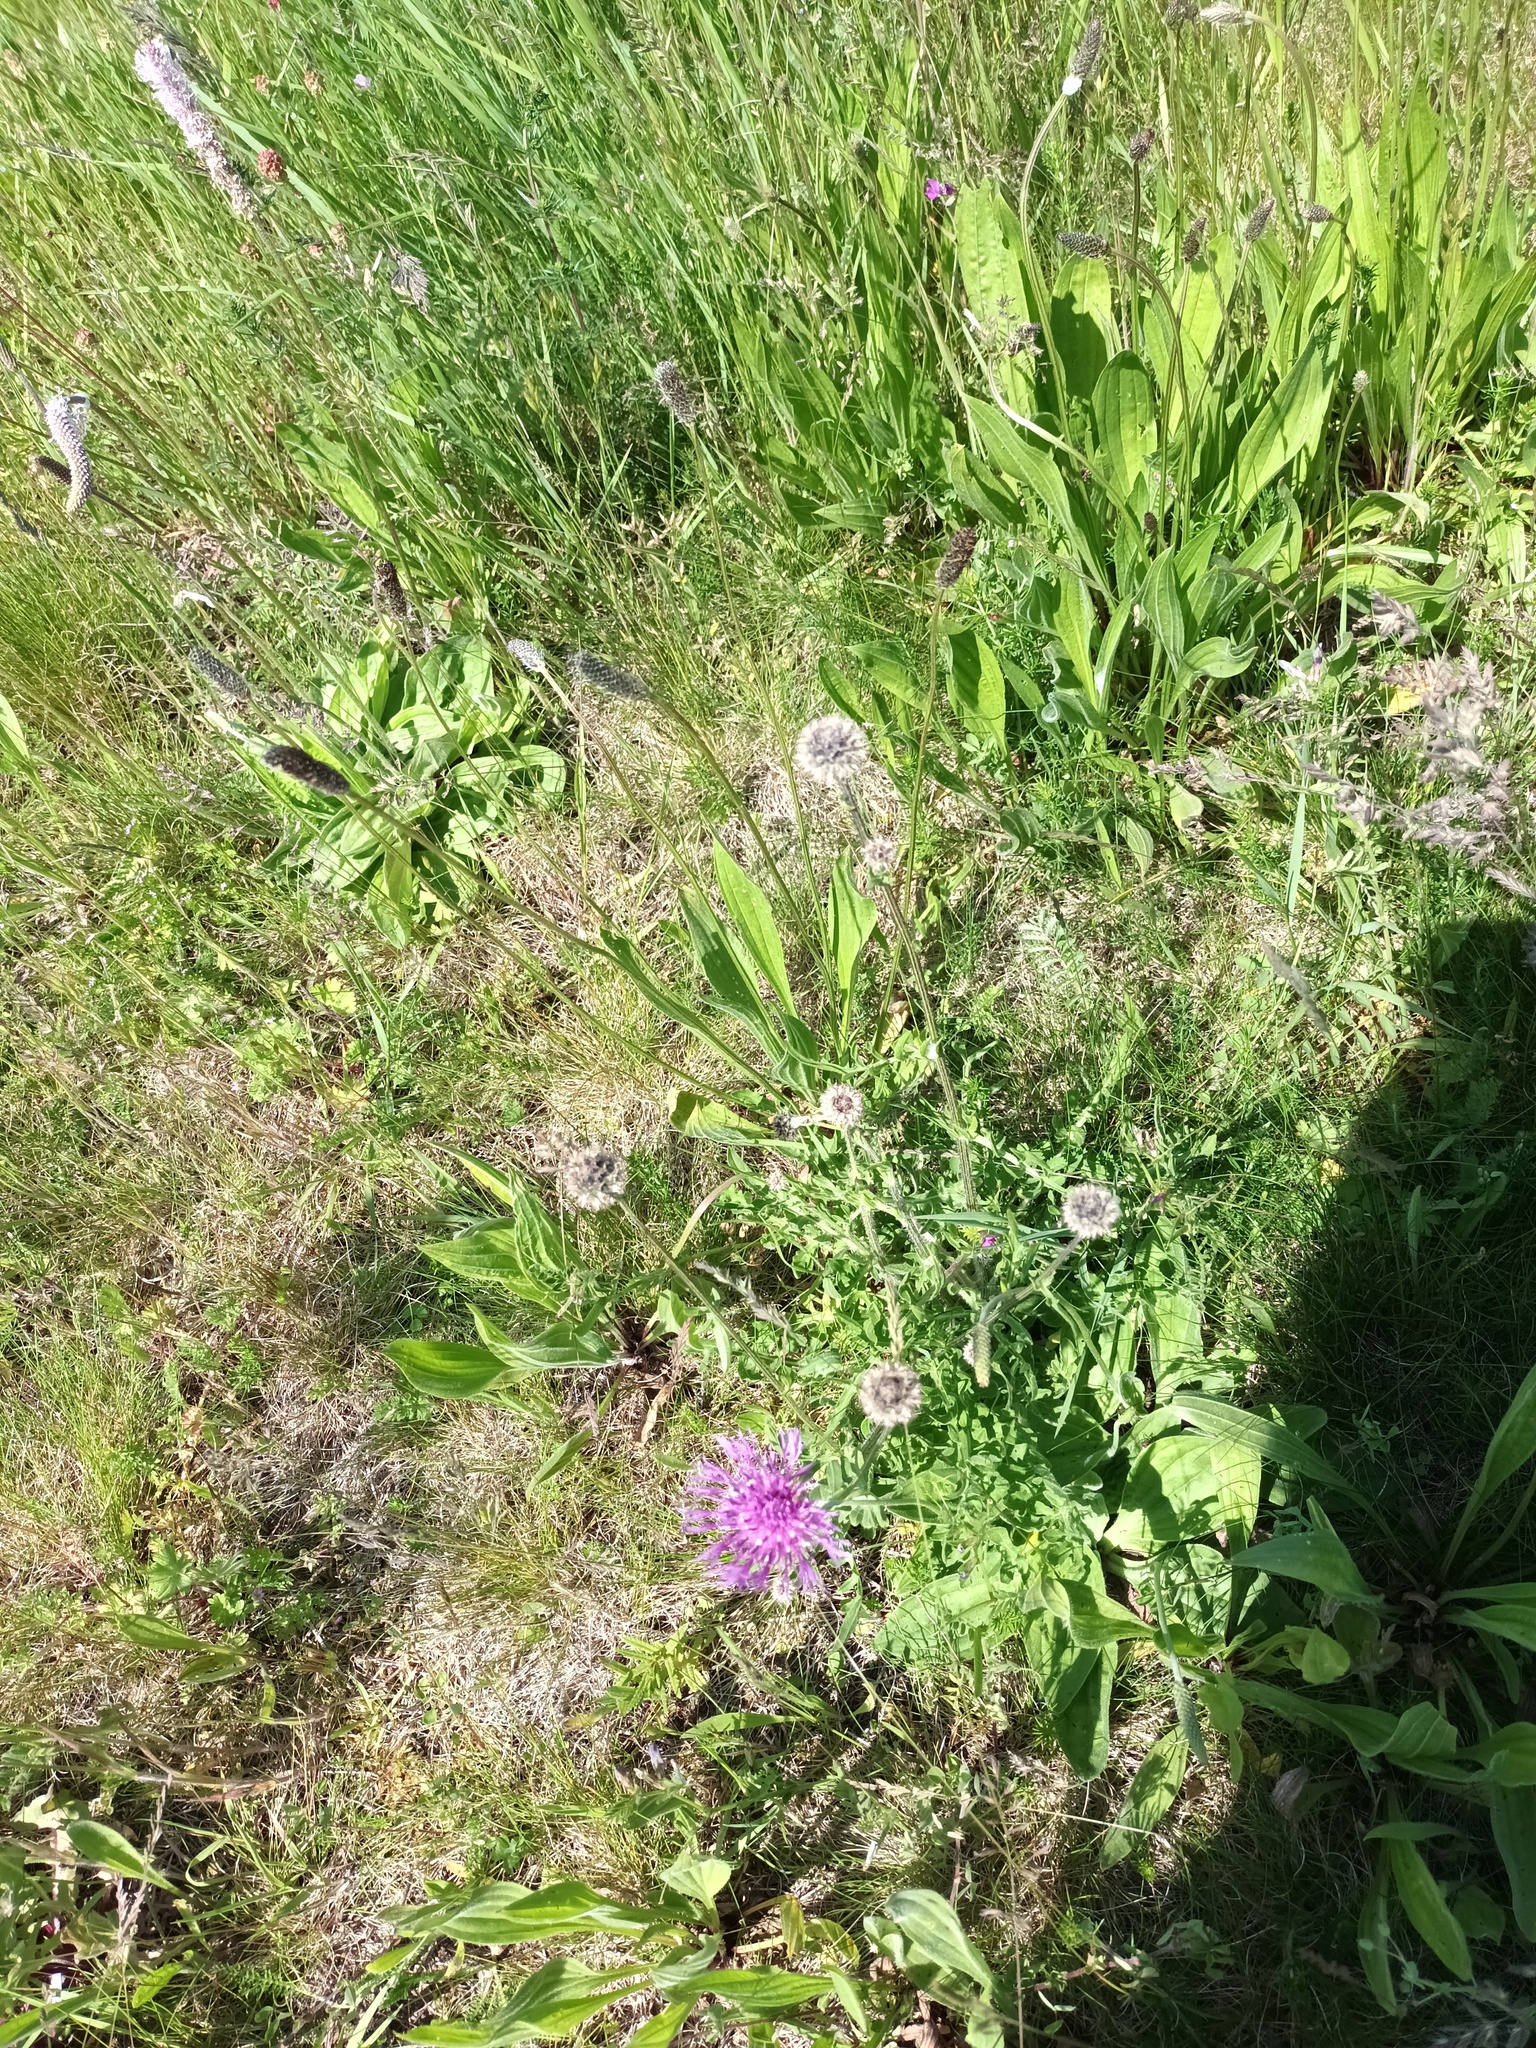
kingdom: Plantae
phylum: Tracheophyta
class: Magnoliopsida
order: Asterales
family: Asteraceae
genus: Centaurea
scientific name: Centaurea scabiosa
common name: Greater knapweed
